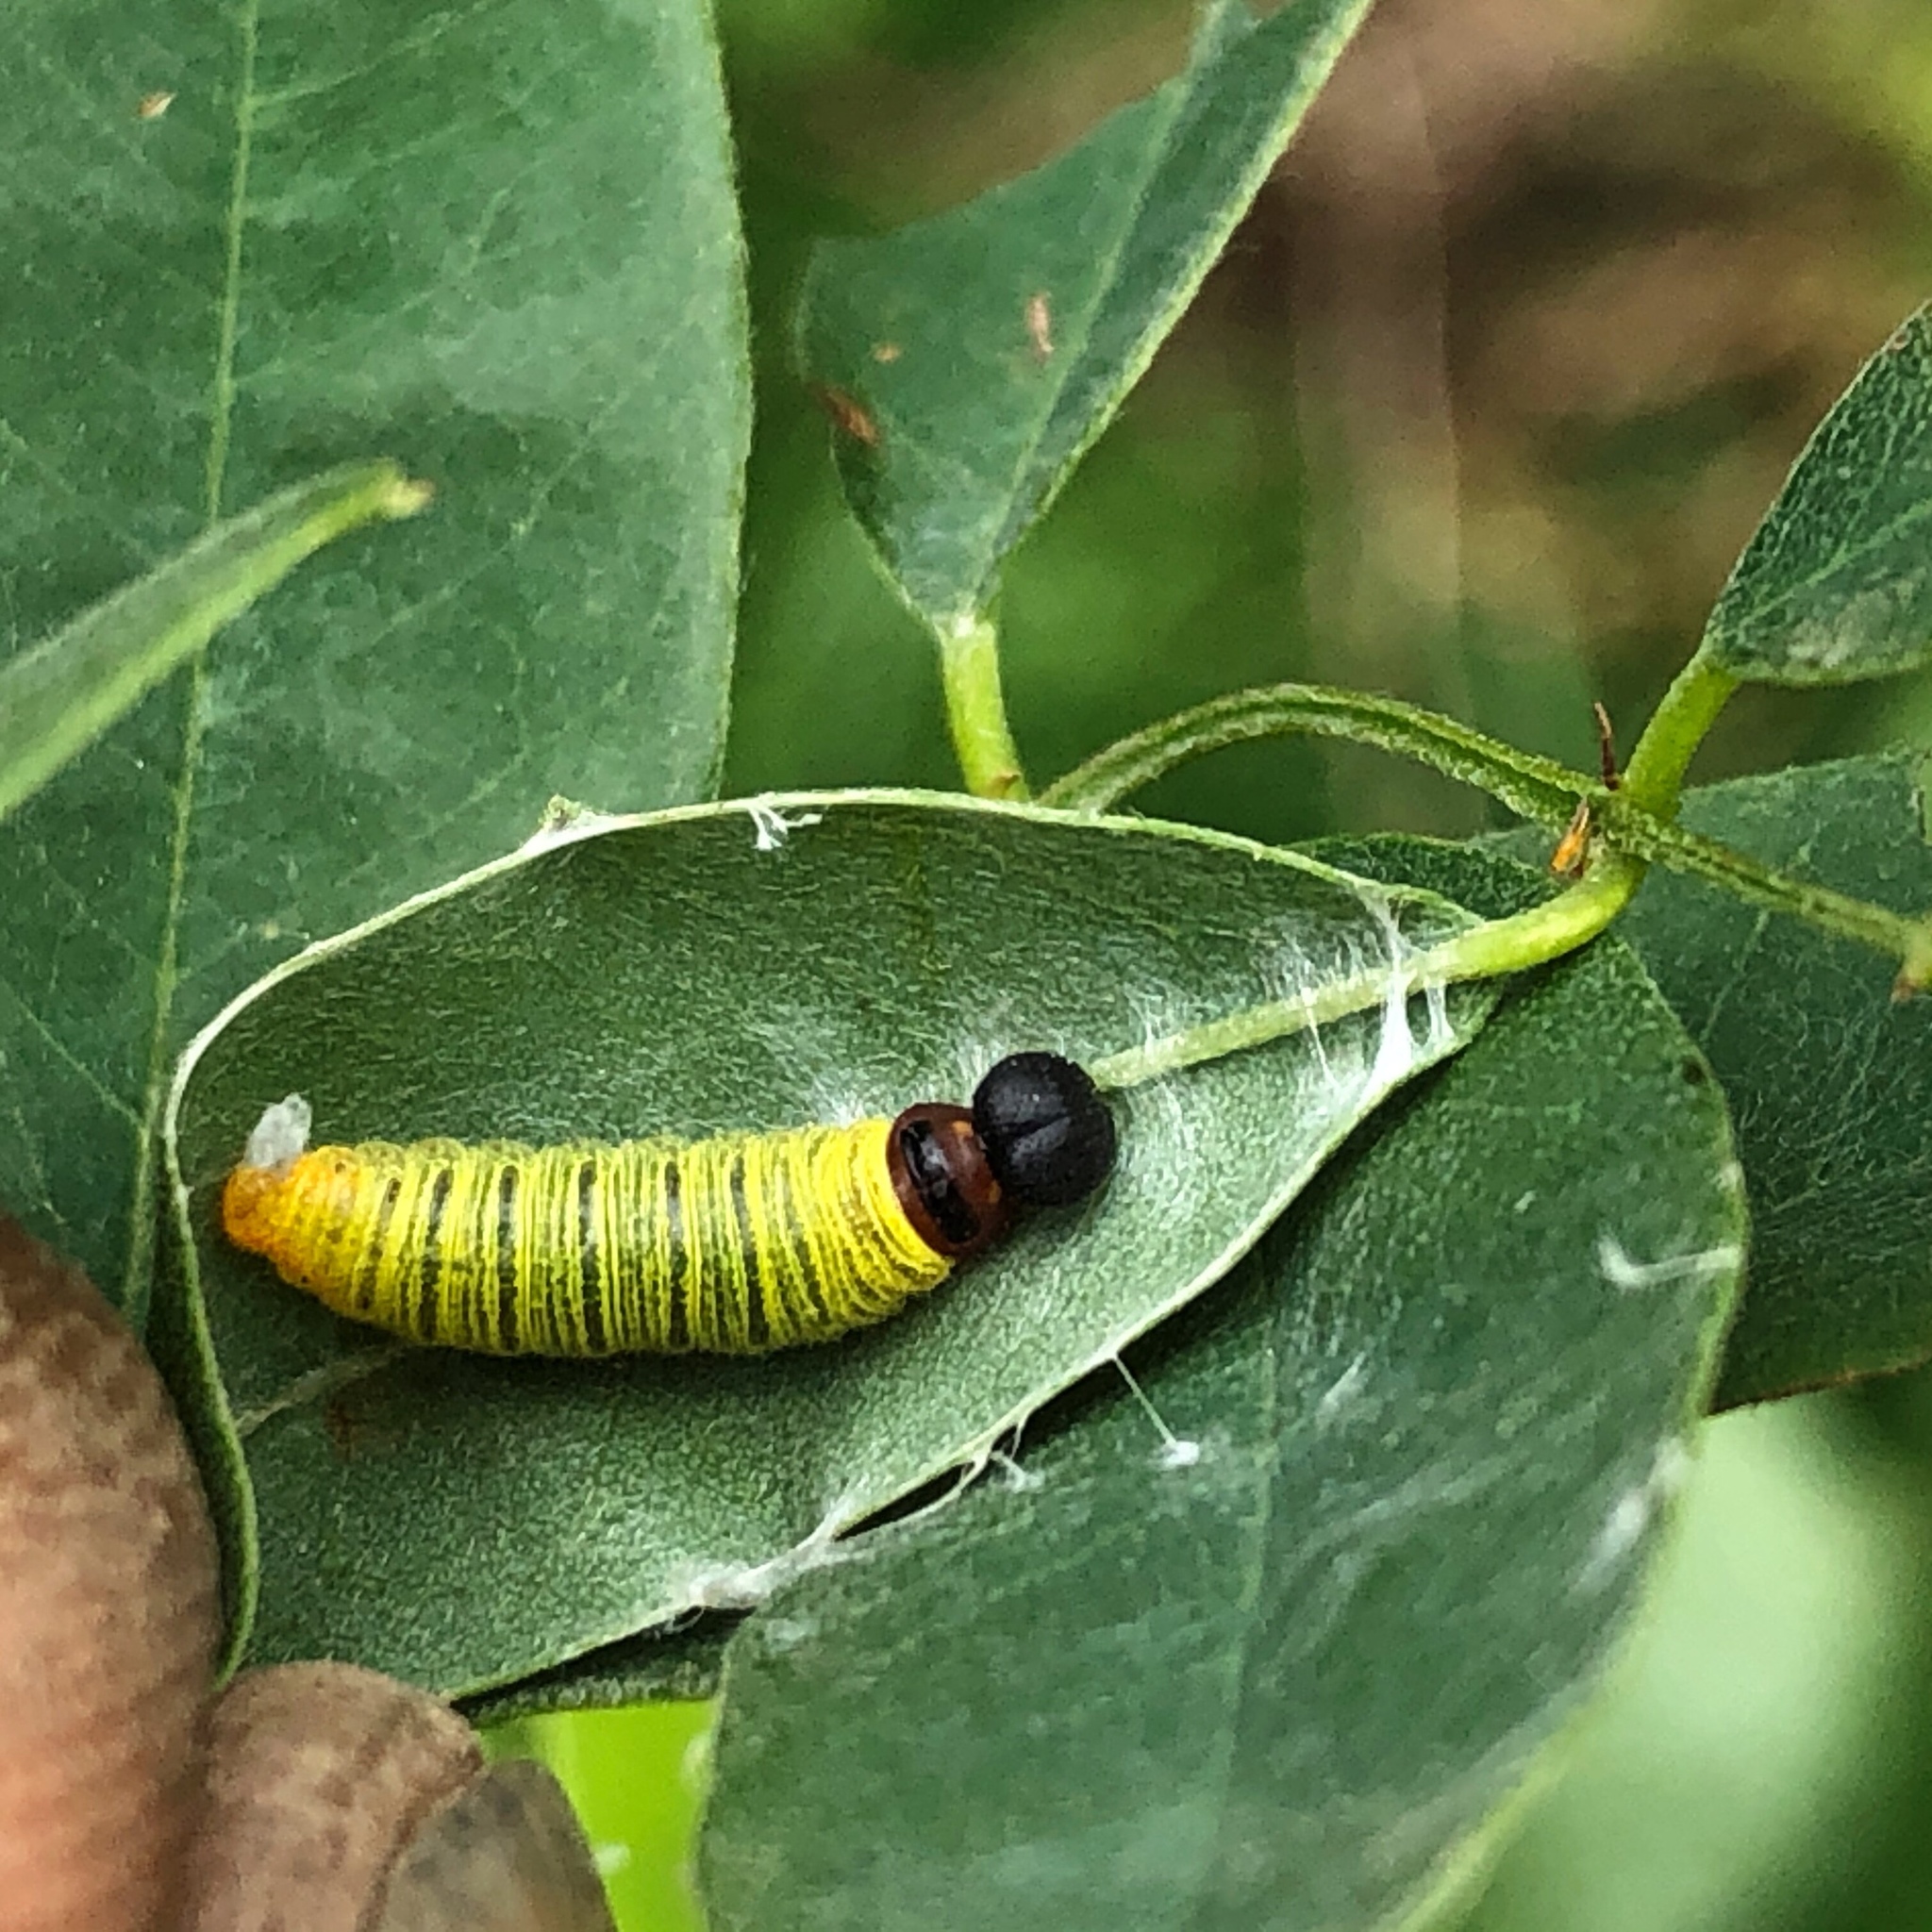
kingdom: Animalia
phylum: Arthropoda
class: Insecta
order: Lepidoptera
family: Hesperiidae
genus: Epargyreus
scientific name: Epargyreus clarus
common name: Silver-spotted skipper
